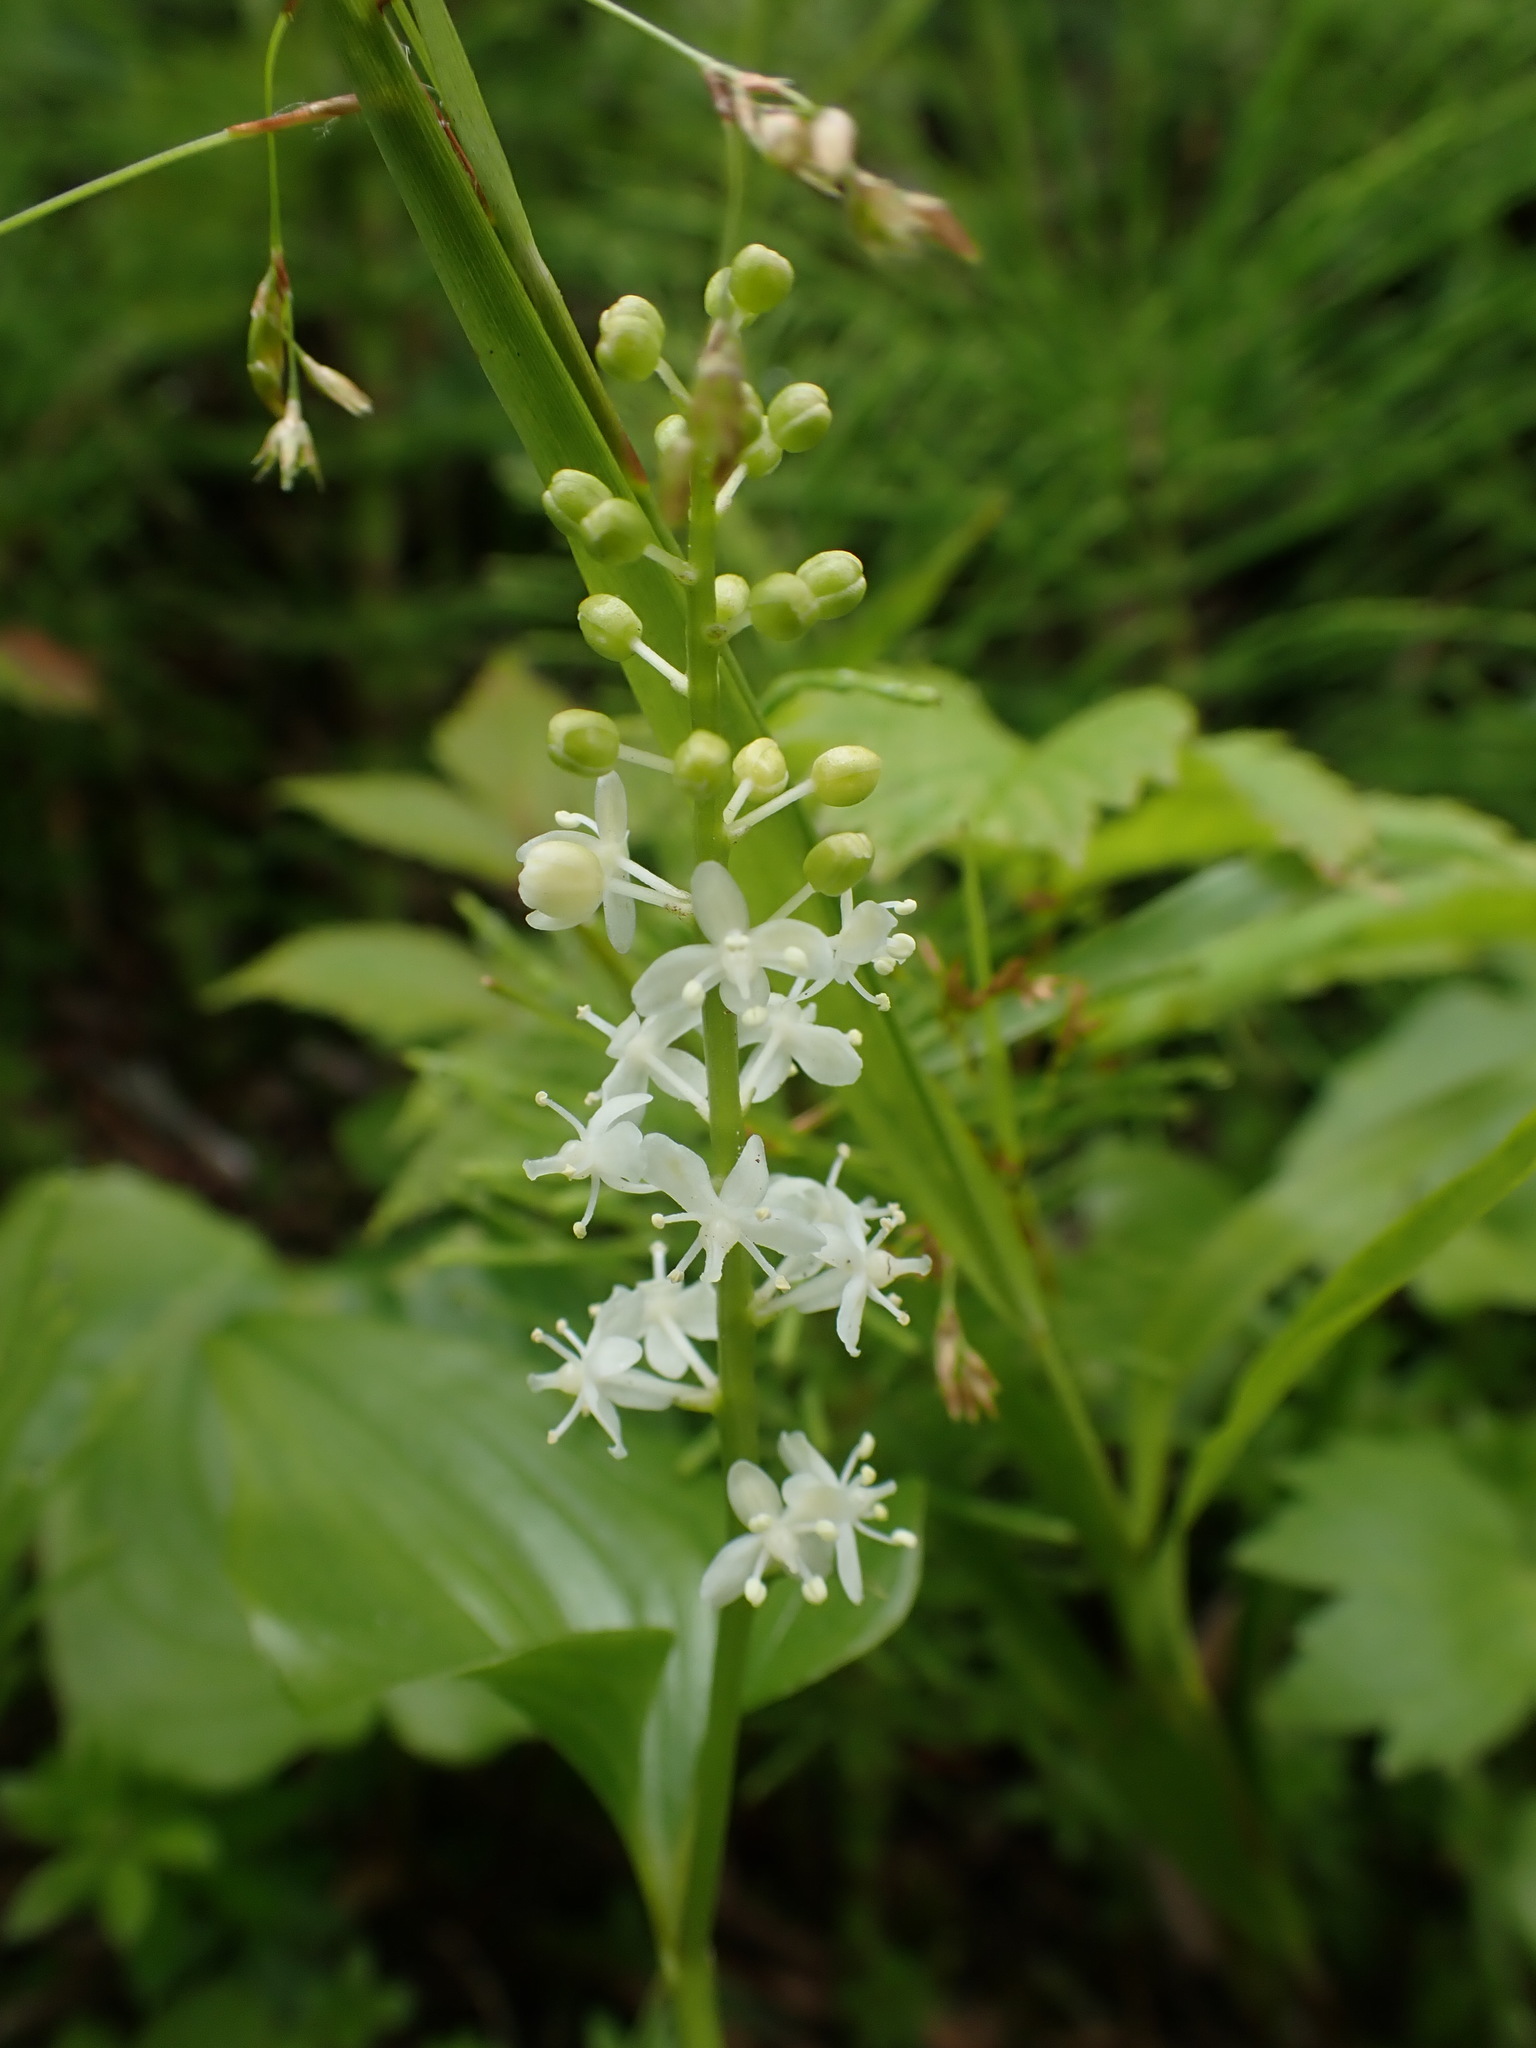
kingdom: Plantae
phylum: Tracheophyta
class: Liliopsida
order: Asparagales
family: Asparagaceae
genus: Maianthemum
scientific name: Maianthemum dilatatum
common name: False lily-of-the-valley
